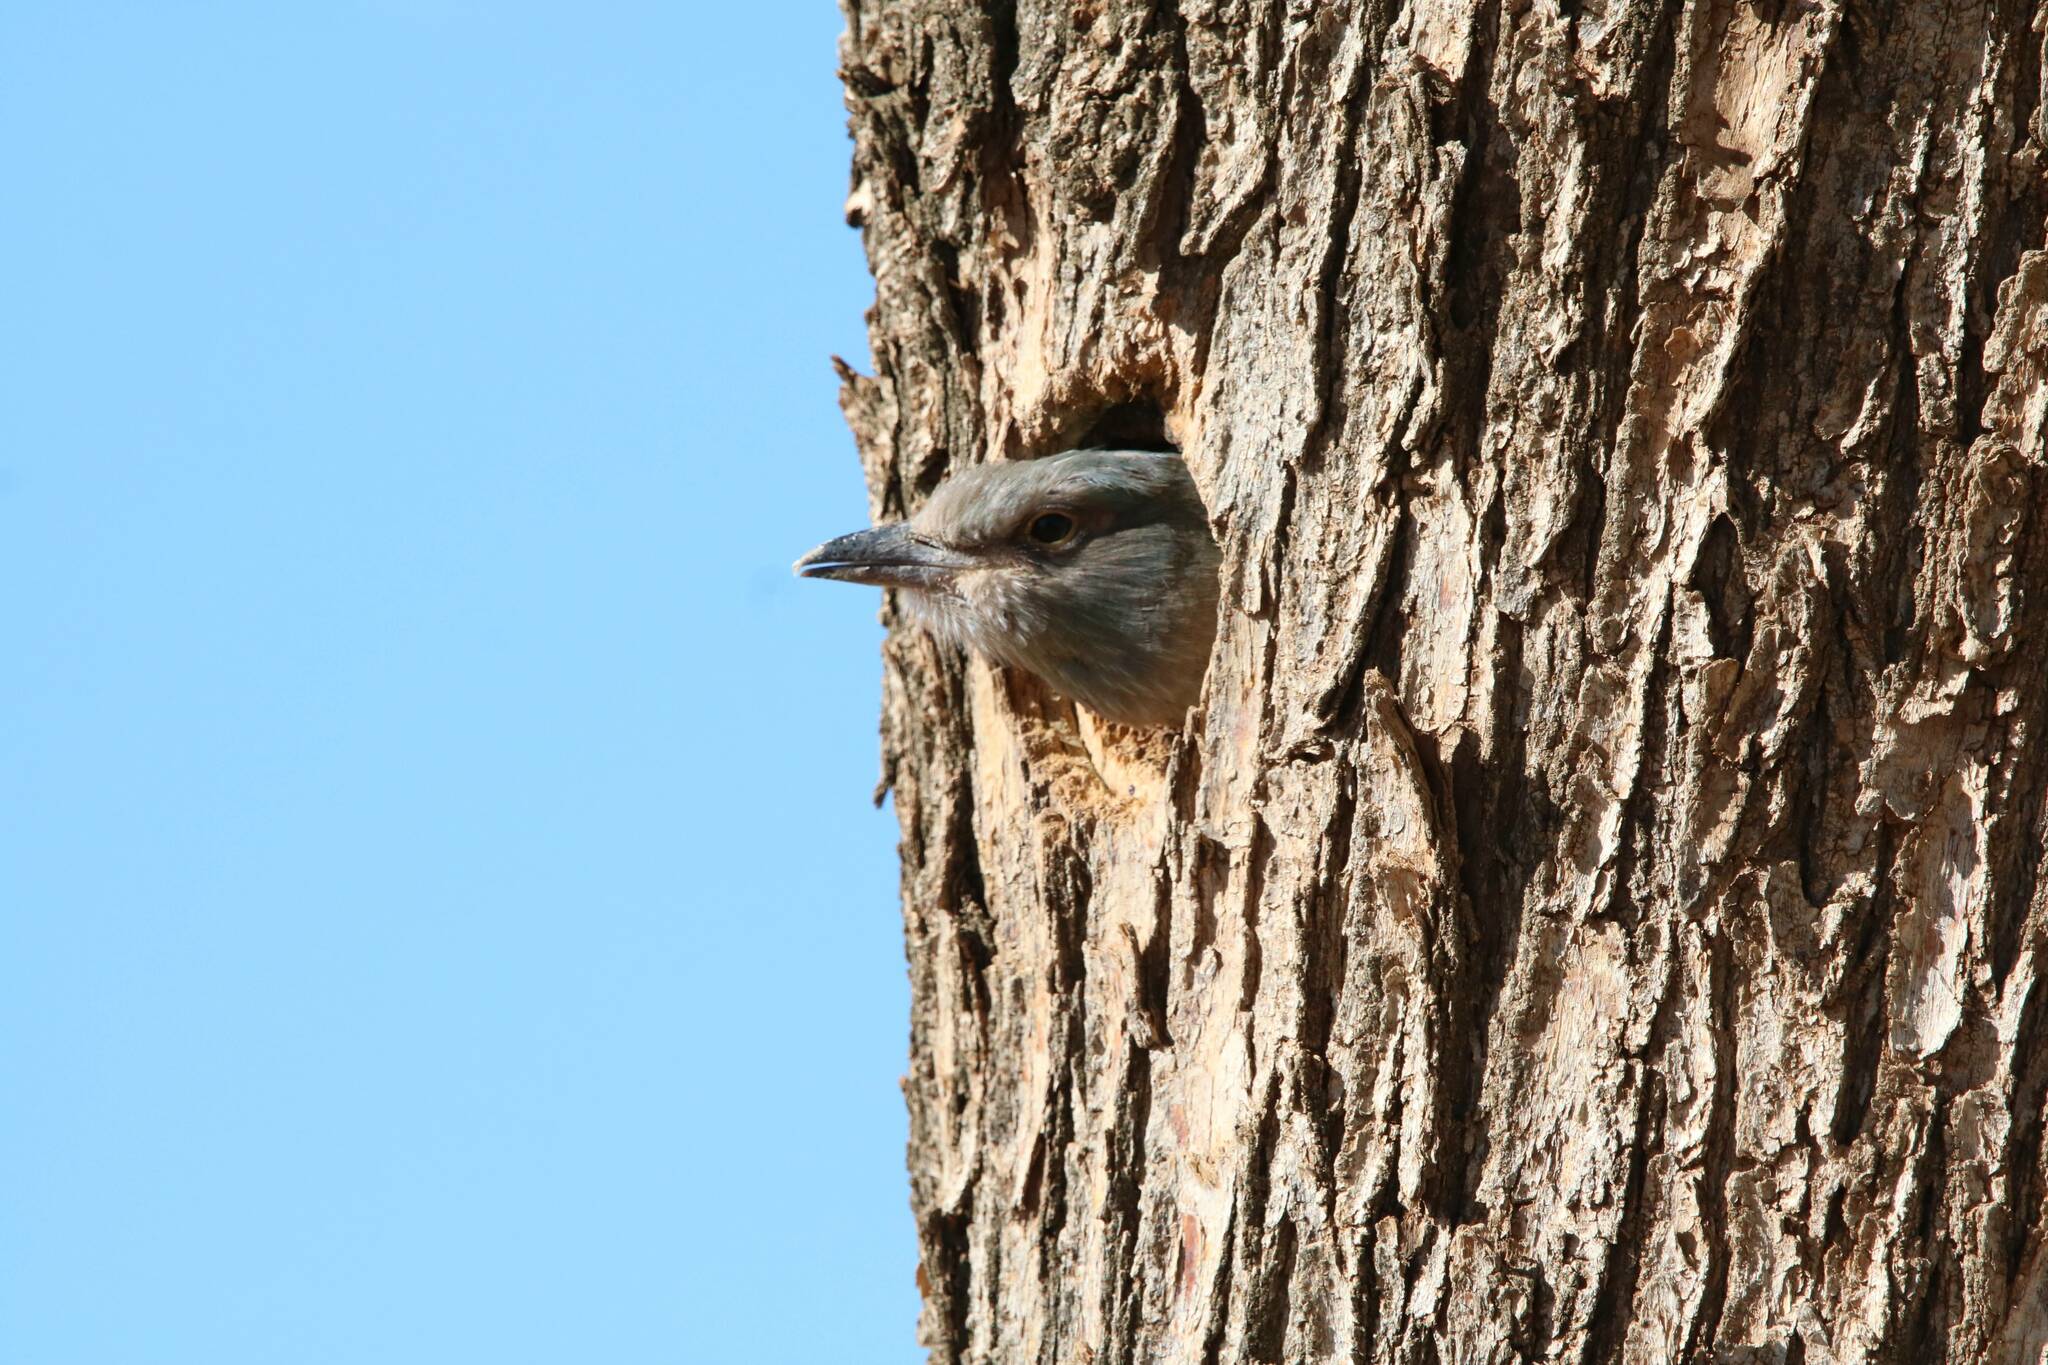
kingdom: Animalia
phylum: Chordata
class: Aves
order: Coraciiformes
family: Coraciidae
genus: Coracias
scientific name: Coracias garrulus
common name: European roller
